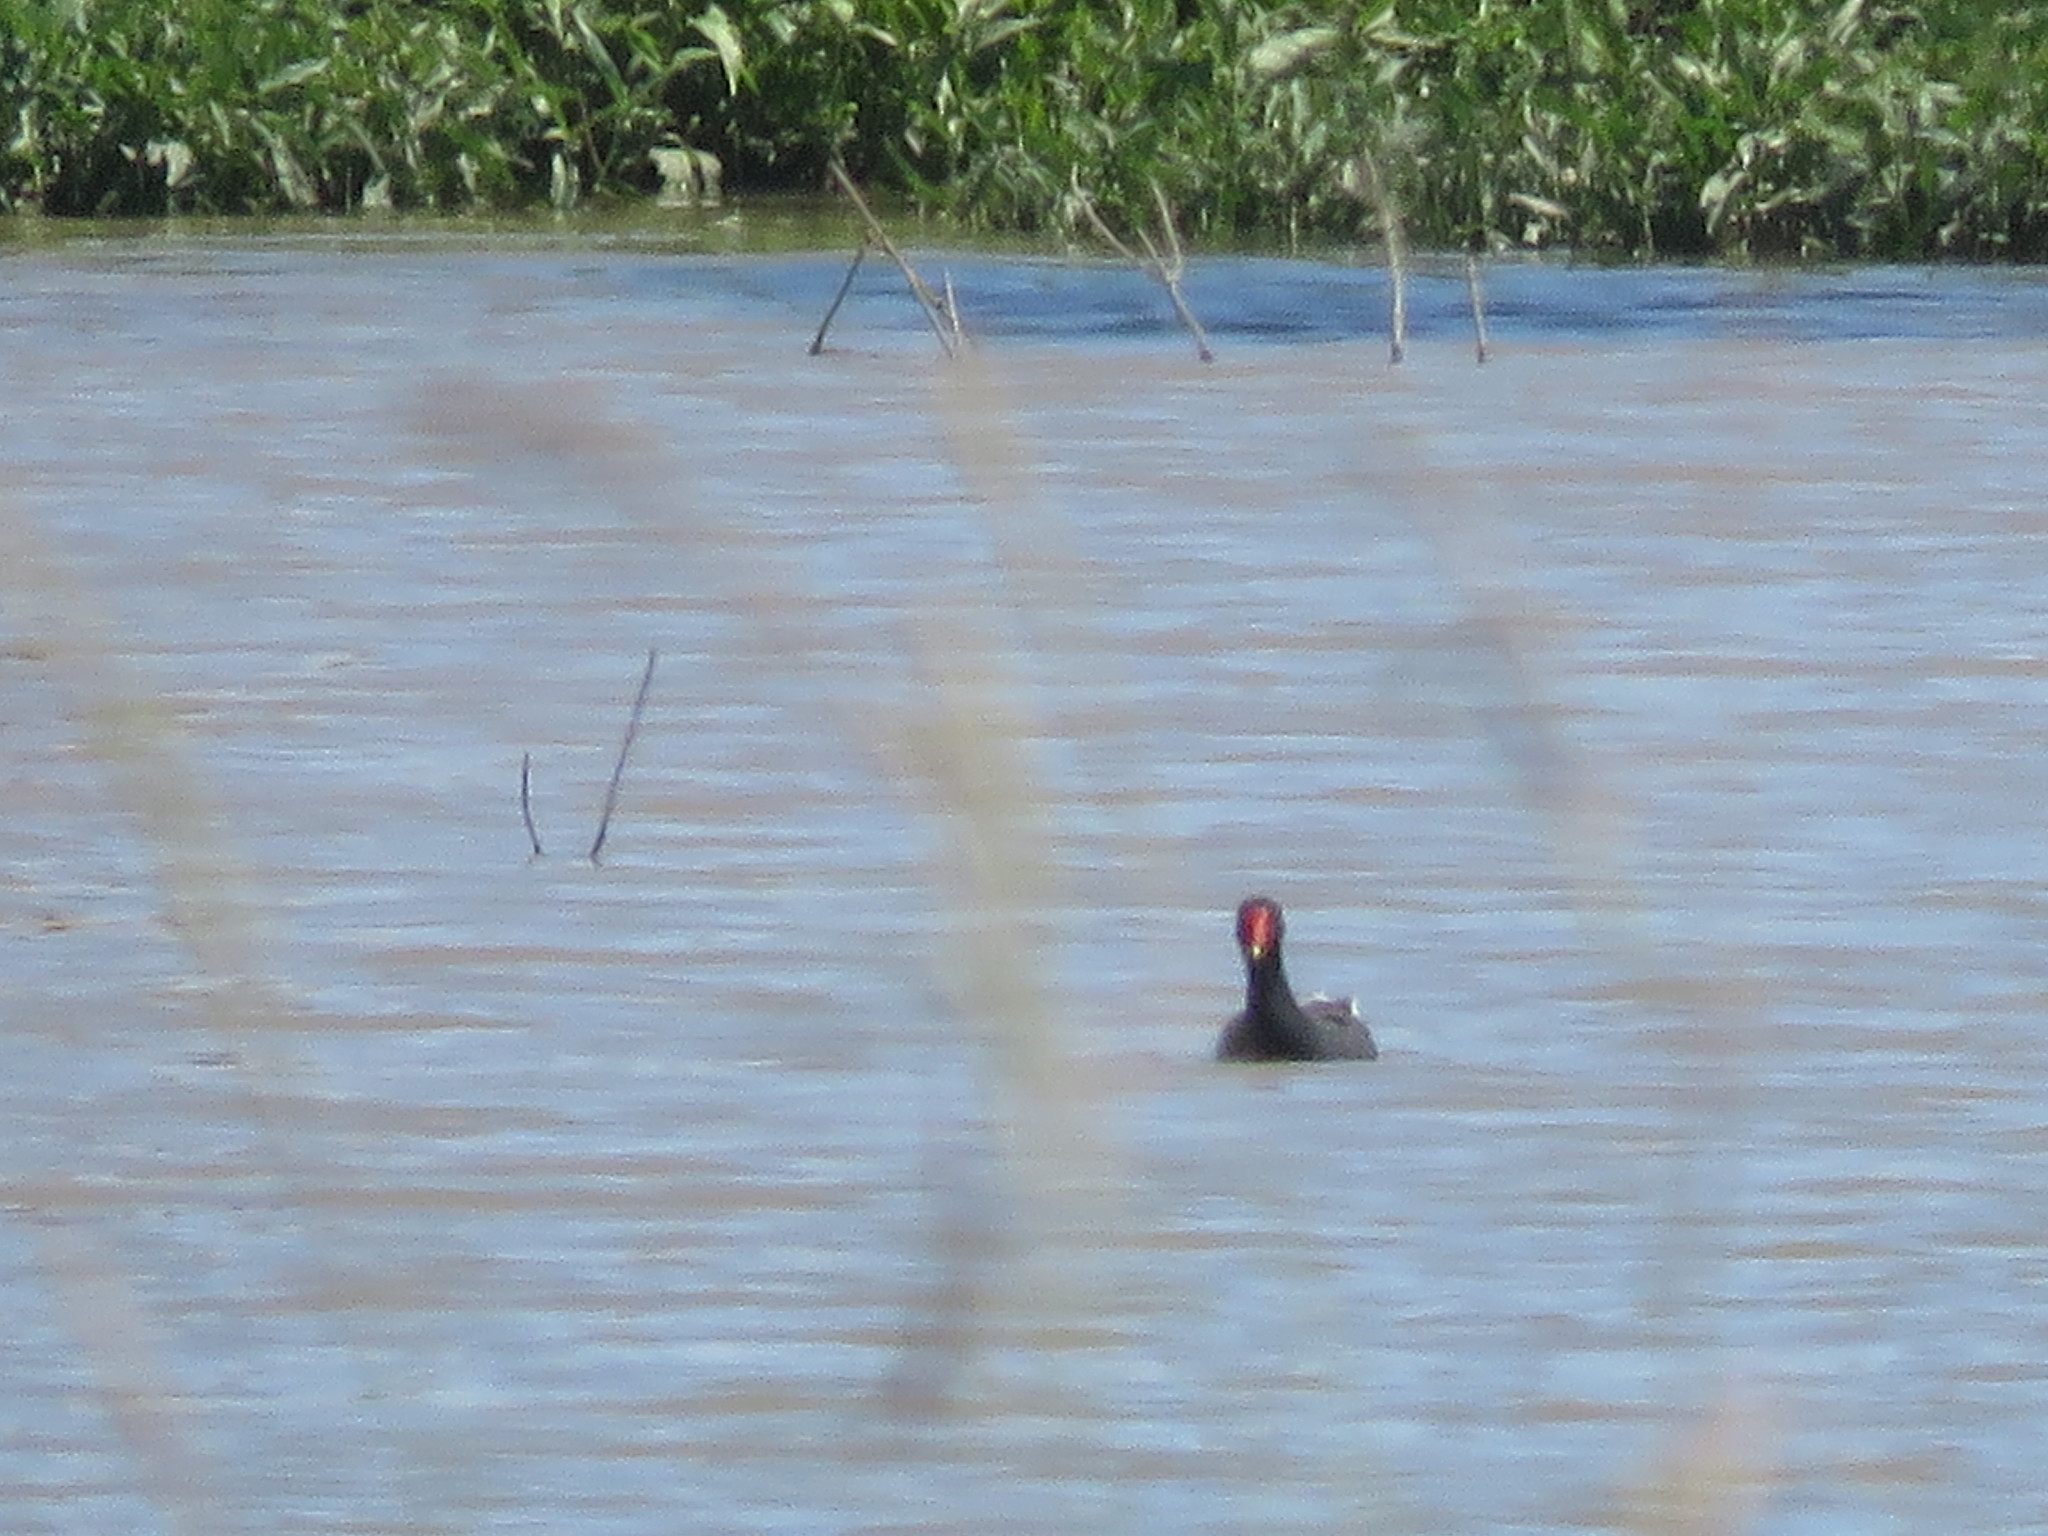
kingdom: Animalia
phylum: Chordata
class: Aves
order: Gruiformes
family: Rallidae
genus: Gallinula
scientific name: Gallinula chloropus
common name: Common moorhen
